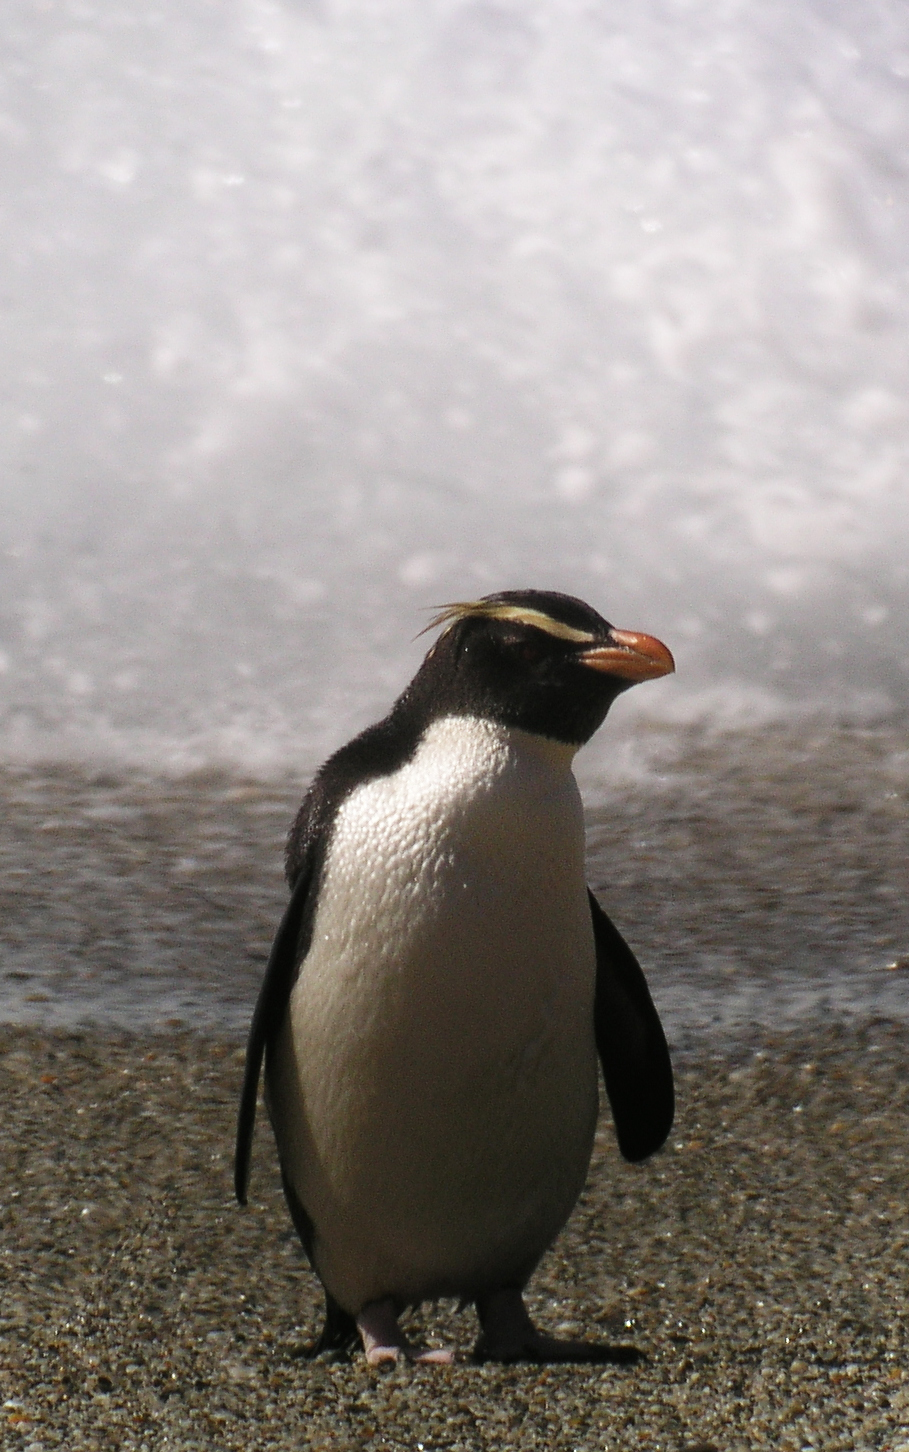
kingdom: Animalia
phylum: Chordata
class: Aves
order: Sphenisciformes
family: Spheniscidae
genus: Eudyptes
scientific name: Eudyptes pachyrhynchus
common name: Fiordland penguin
